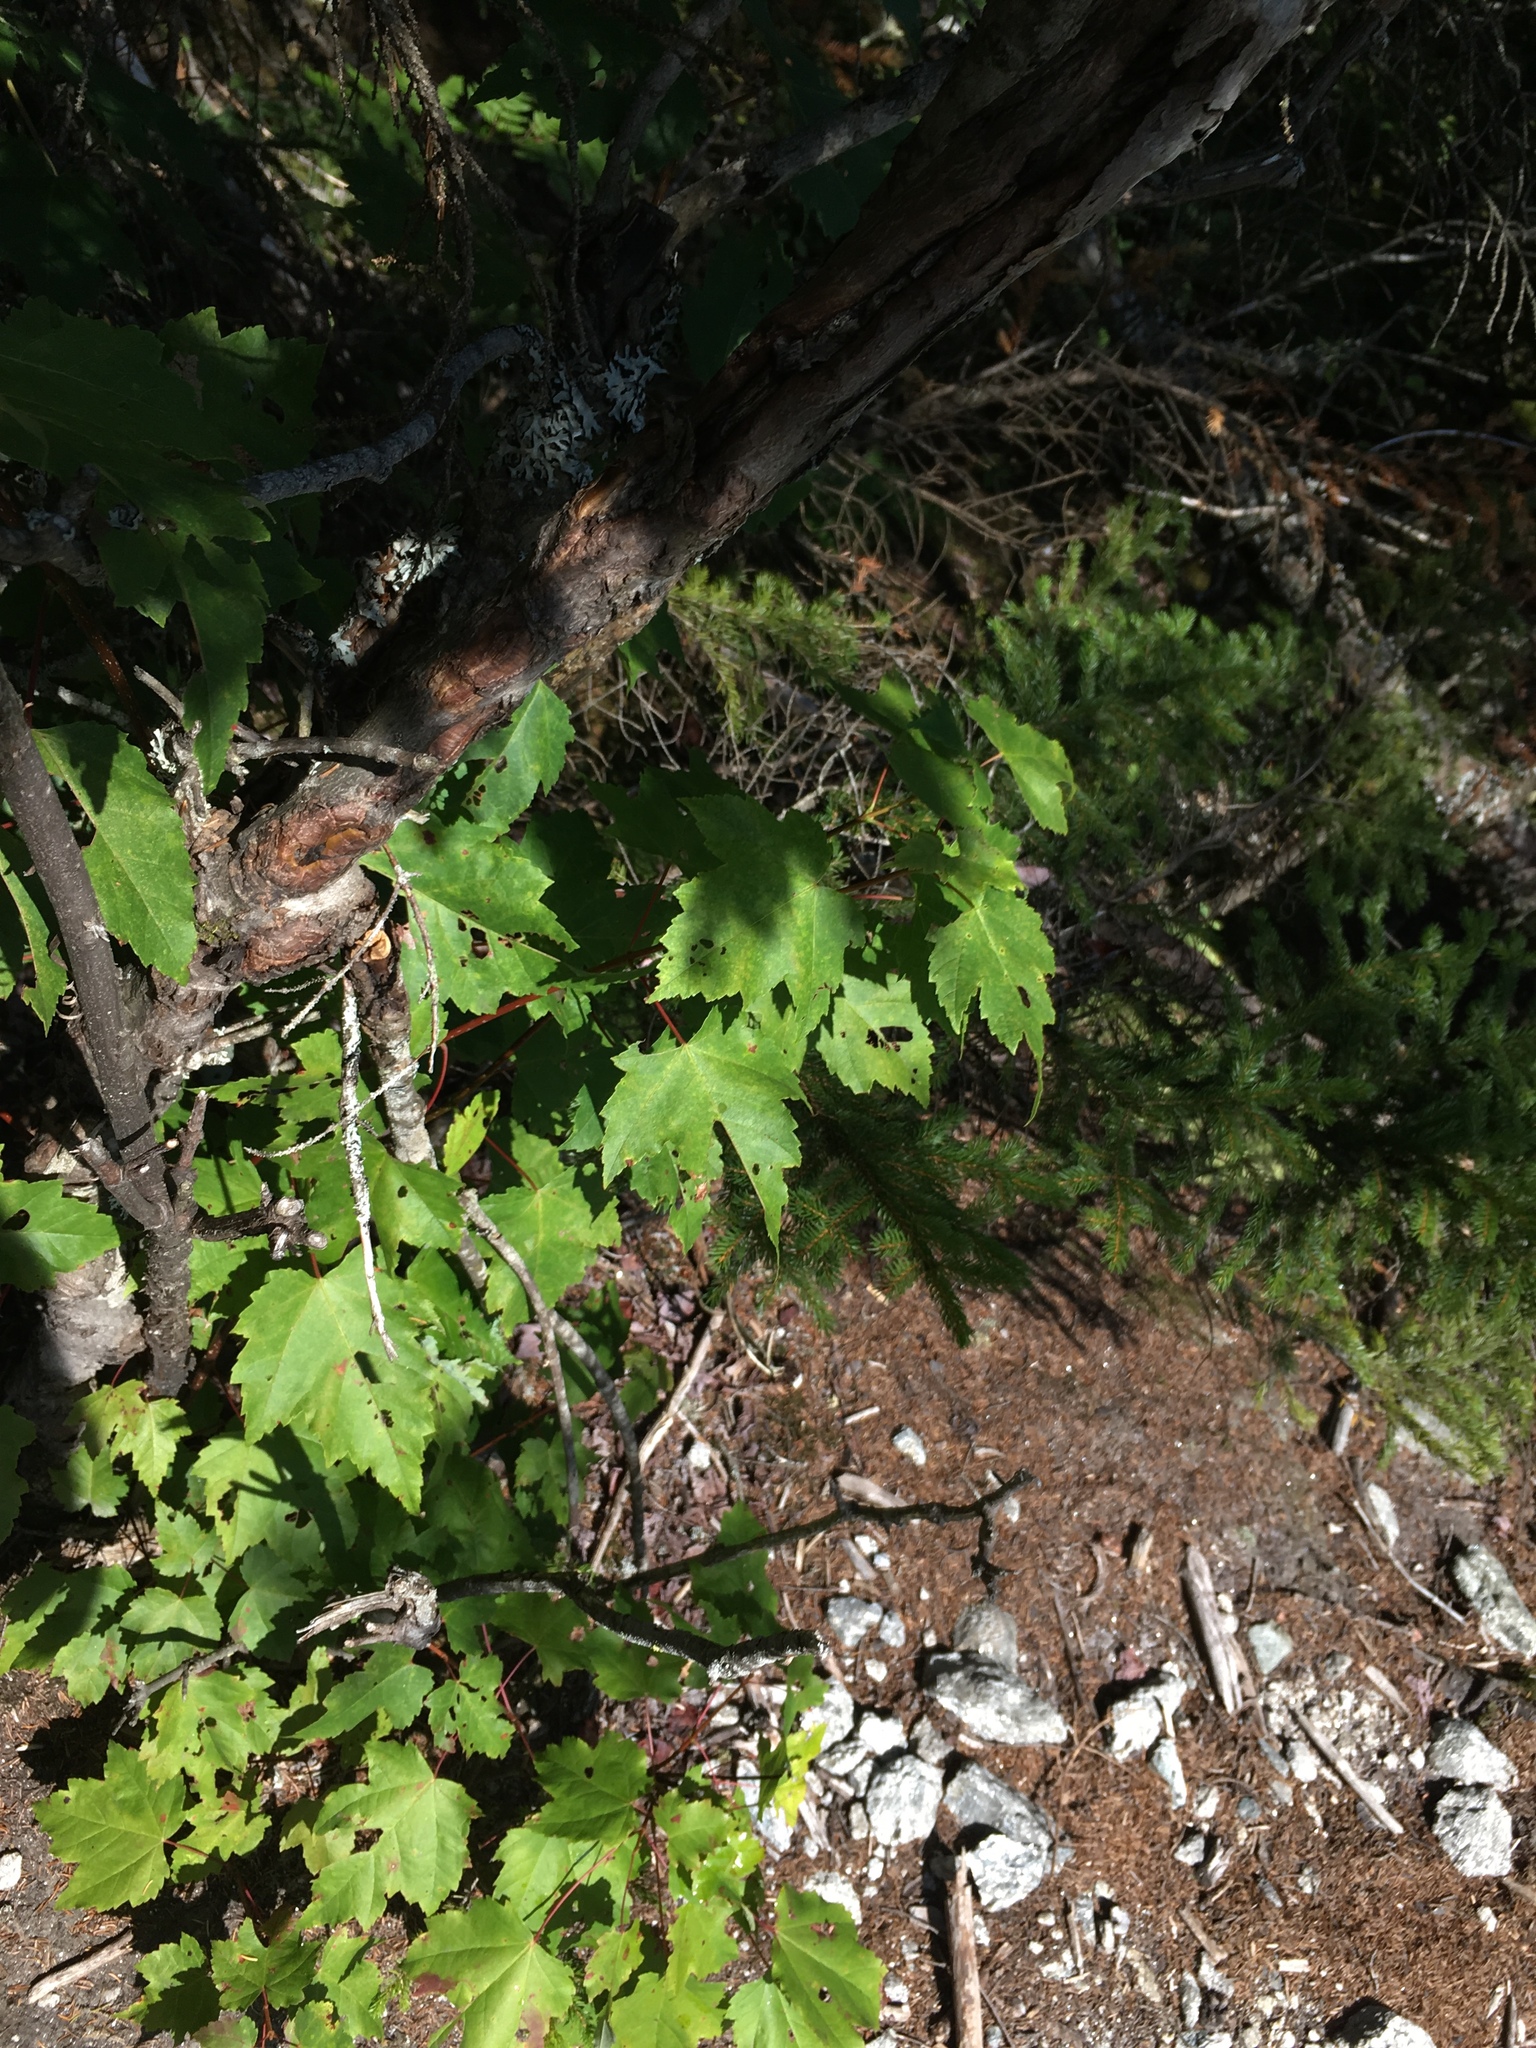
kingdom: Plantae
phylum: Tracheophyta
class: Magnoliopsida
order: Sapindales
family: Sapindaceae
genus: Acer
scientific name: Acer rubrum
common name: Red maple
